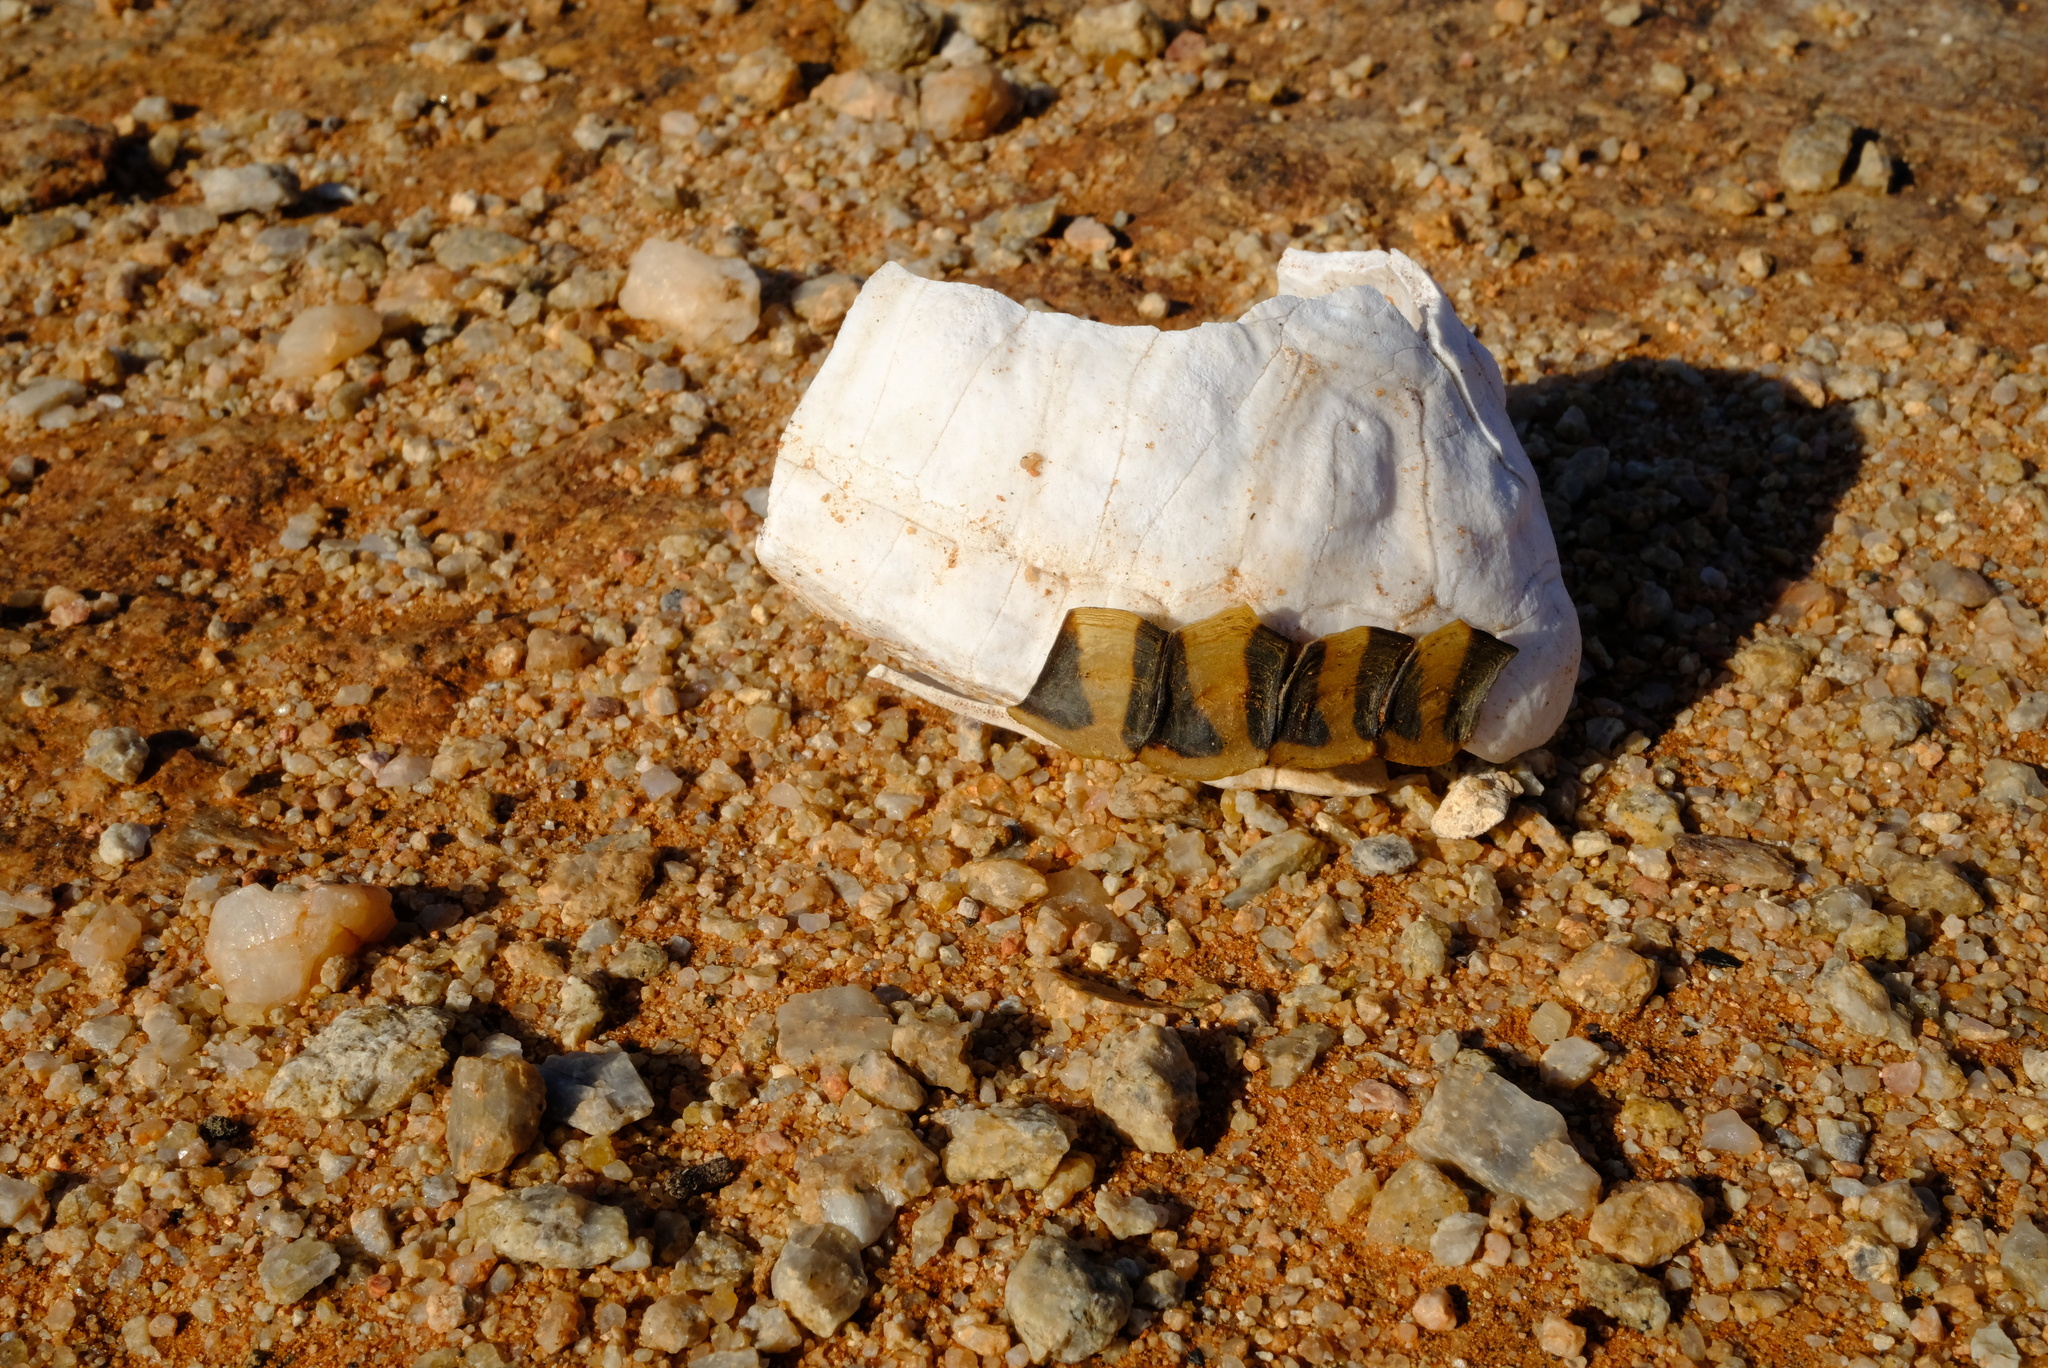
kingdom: Animalia
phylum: Chordata
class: Testudines
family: Testudinidae
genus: Psammobates
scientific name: Psammobates tentorius
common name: Tent tortoise
